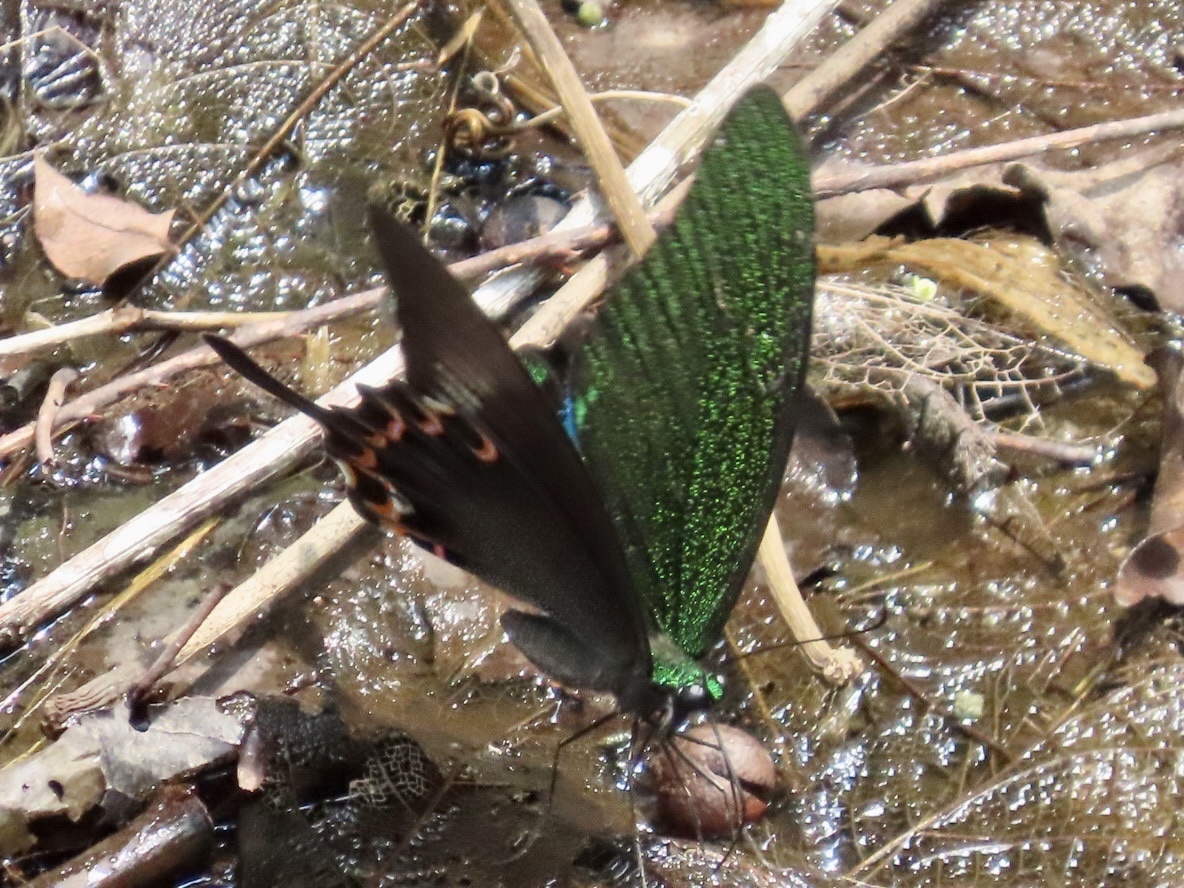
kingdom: Animalia
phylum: Arthropoda
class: Insecta
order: Lepidoptera
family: Papilionidae
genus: Papilio
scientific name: Papilio paris
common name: Paris peacock
